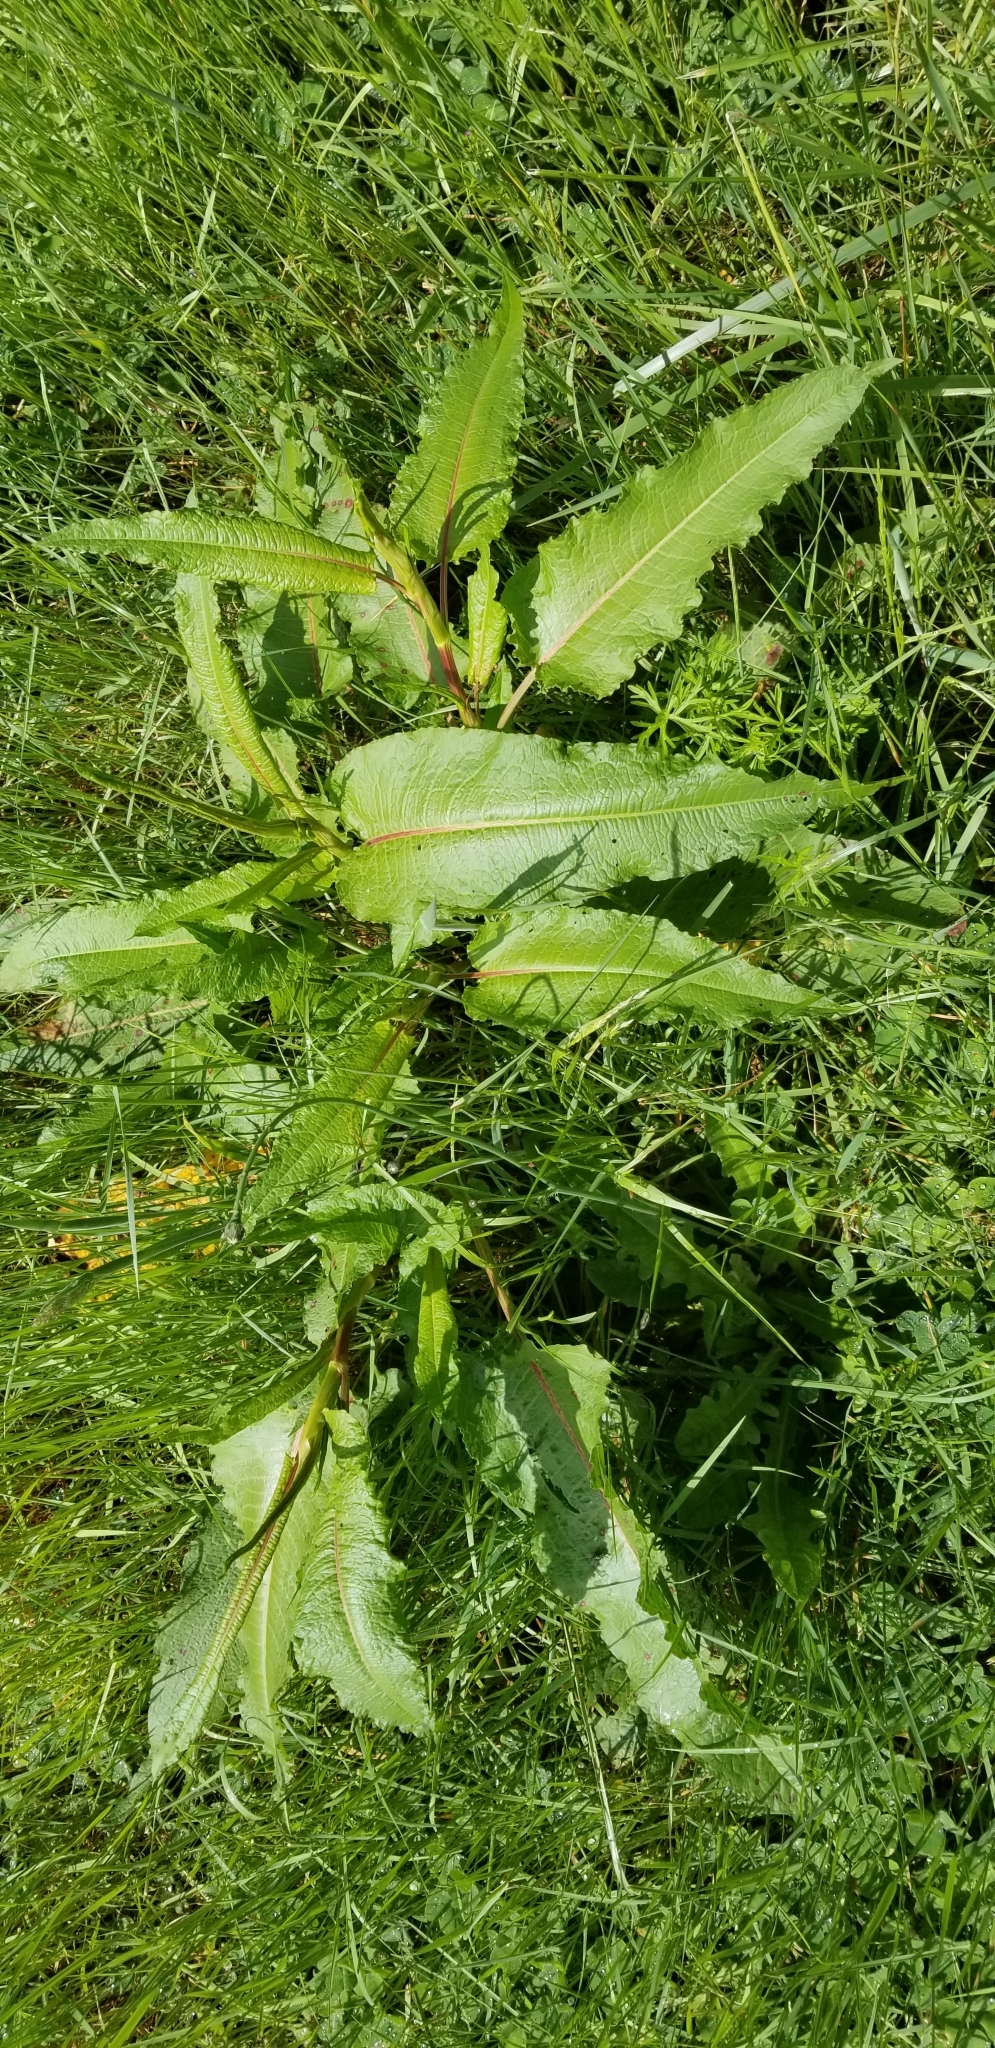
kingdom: Plantae
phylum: Tracheophyta
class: Magnoliopsida
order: Caryophyllales
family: Polygonaceae
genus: Rumex
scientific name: Rumex obtusifolius
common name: Bitter dock
